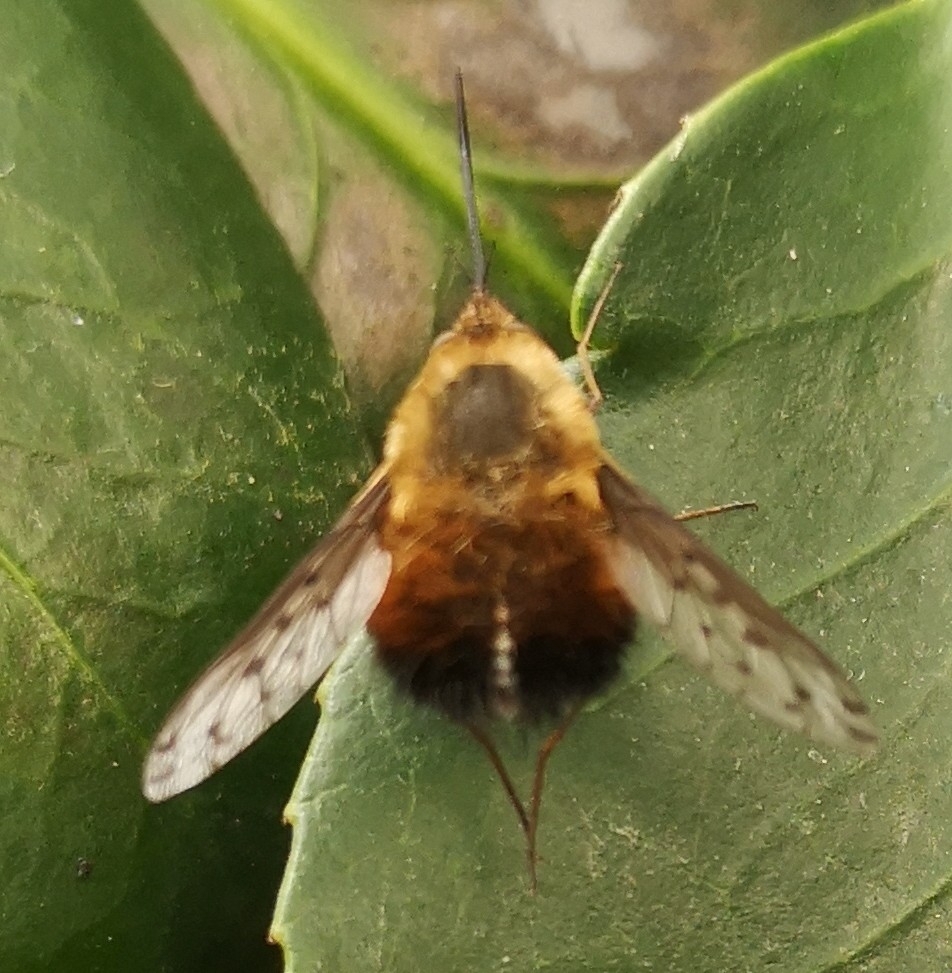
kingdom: Animalia
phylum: Arthropoda
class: Insecta
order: Diptera
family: Bombyliidae
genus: Bombylius
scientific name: Bombylius discolor
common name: Dotted bee-fly
